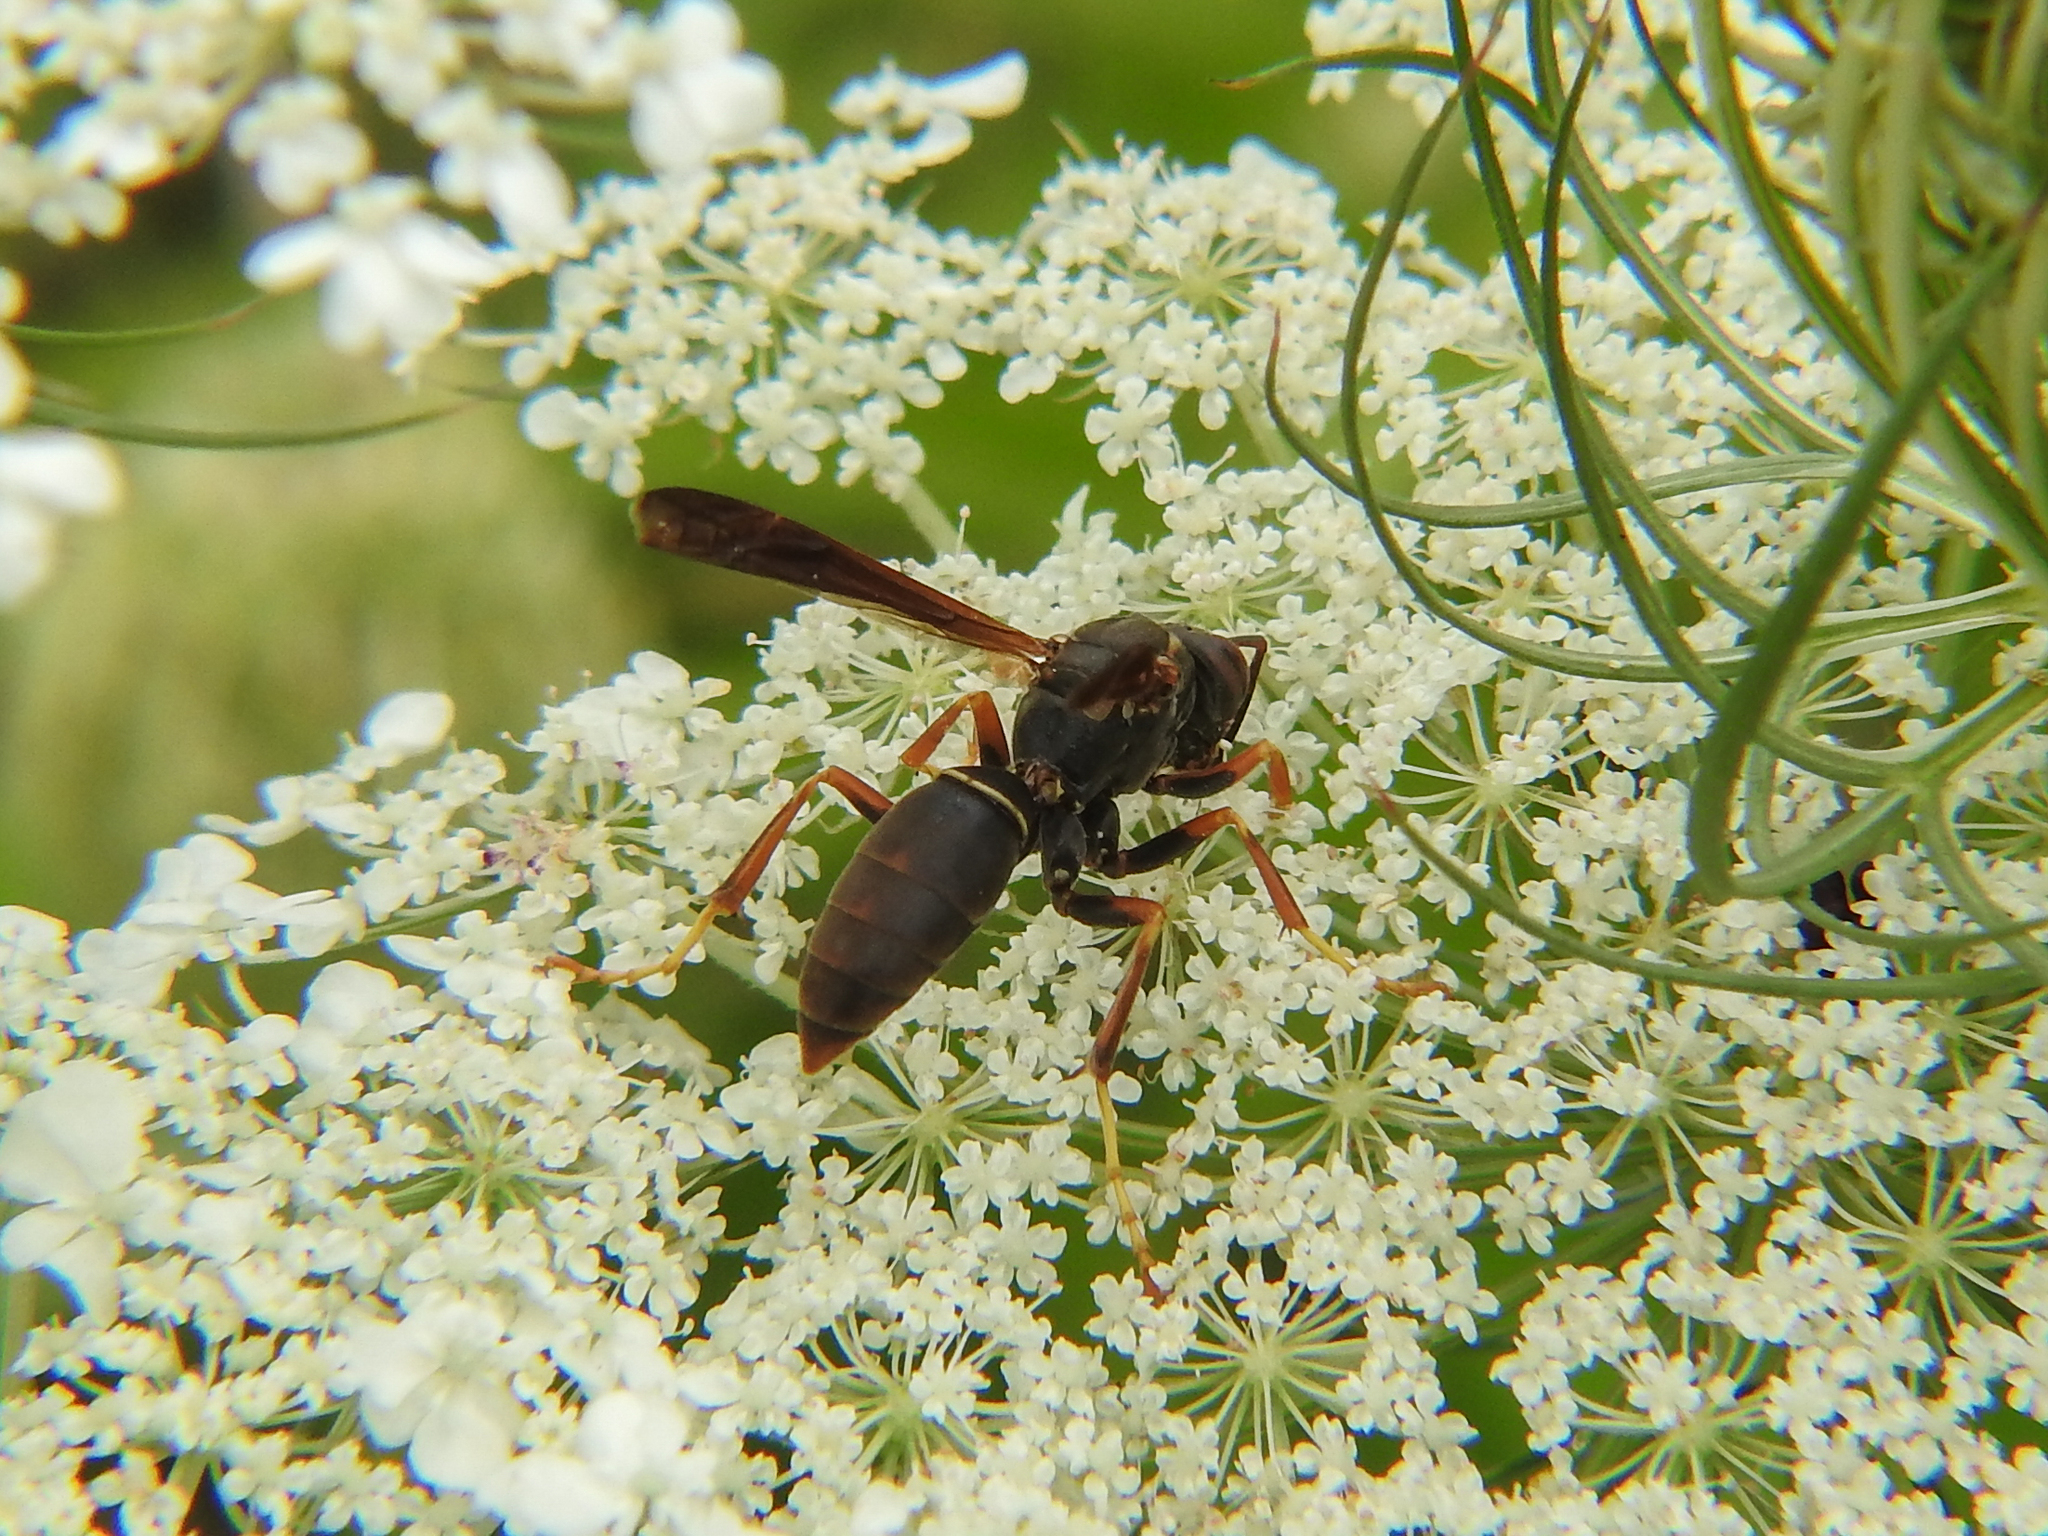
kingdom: Animalia
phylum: Arthropoda
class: Insecta
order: Hymenoptera
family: Eumenidae
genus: Polistes
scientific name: Polistes fuscatus
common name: Dark paper wasp
